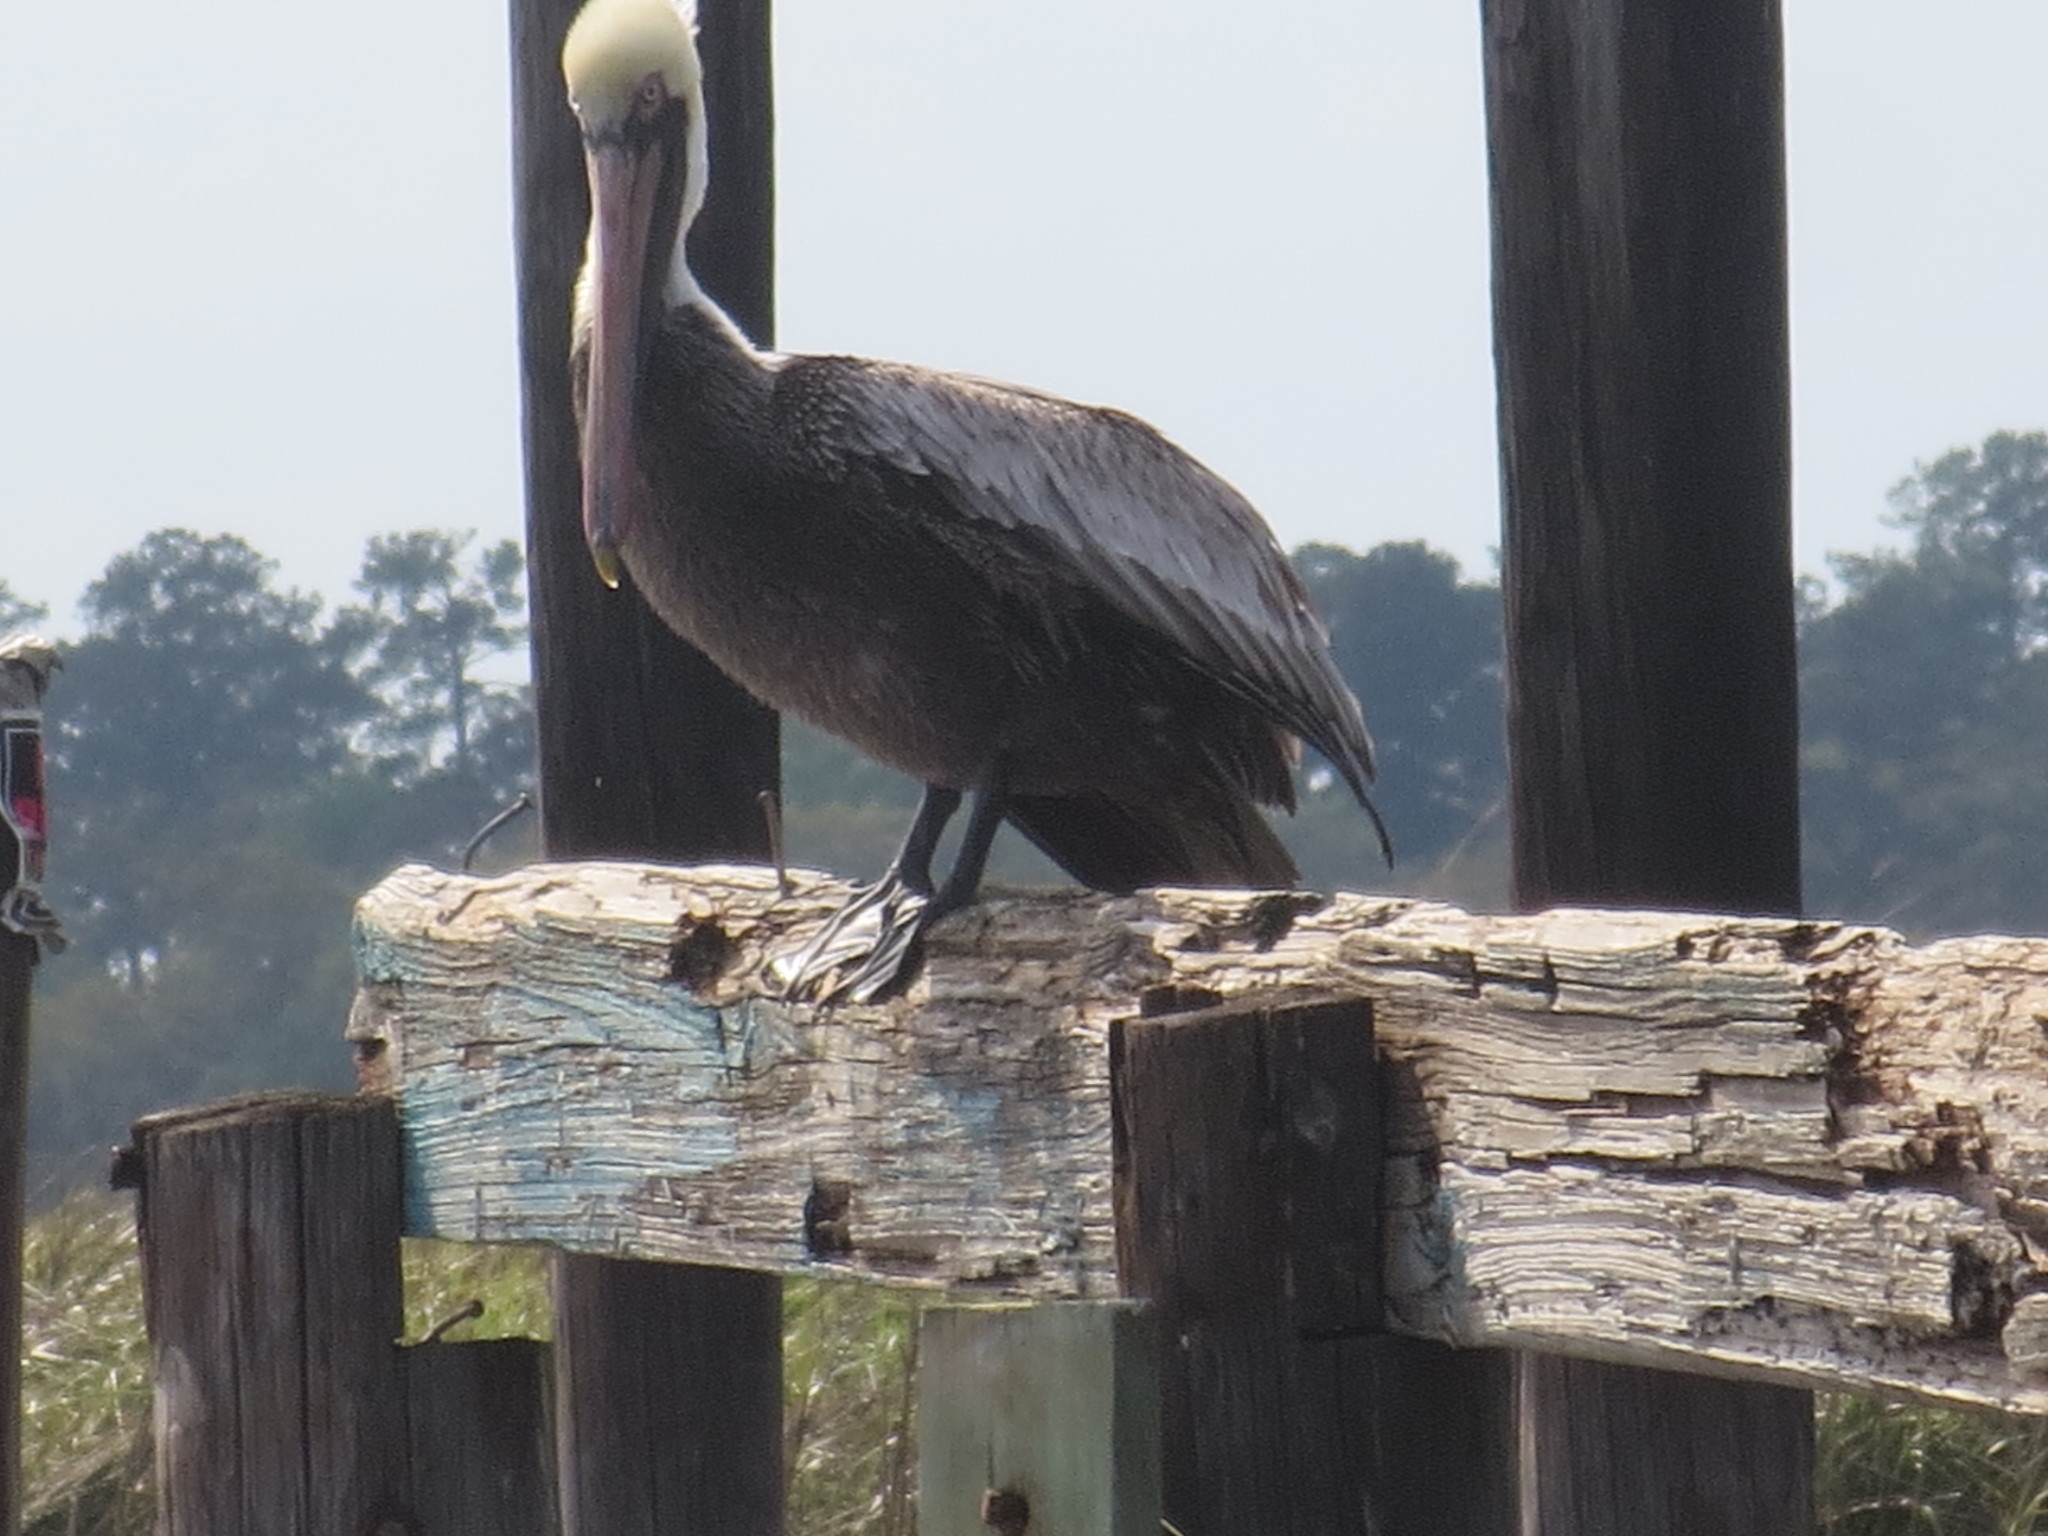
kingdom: Animalia
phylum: Chordata
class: Aves
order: Pelecaniformes
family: Pelecanidae
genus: Pelecanus
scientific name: Pelecanus occidentalis
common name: Brown pelican
